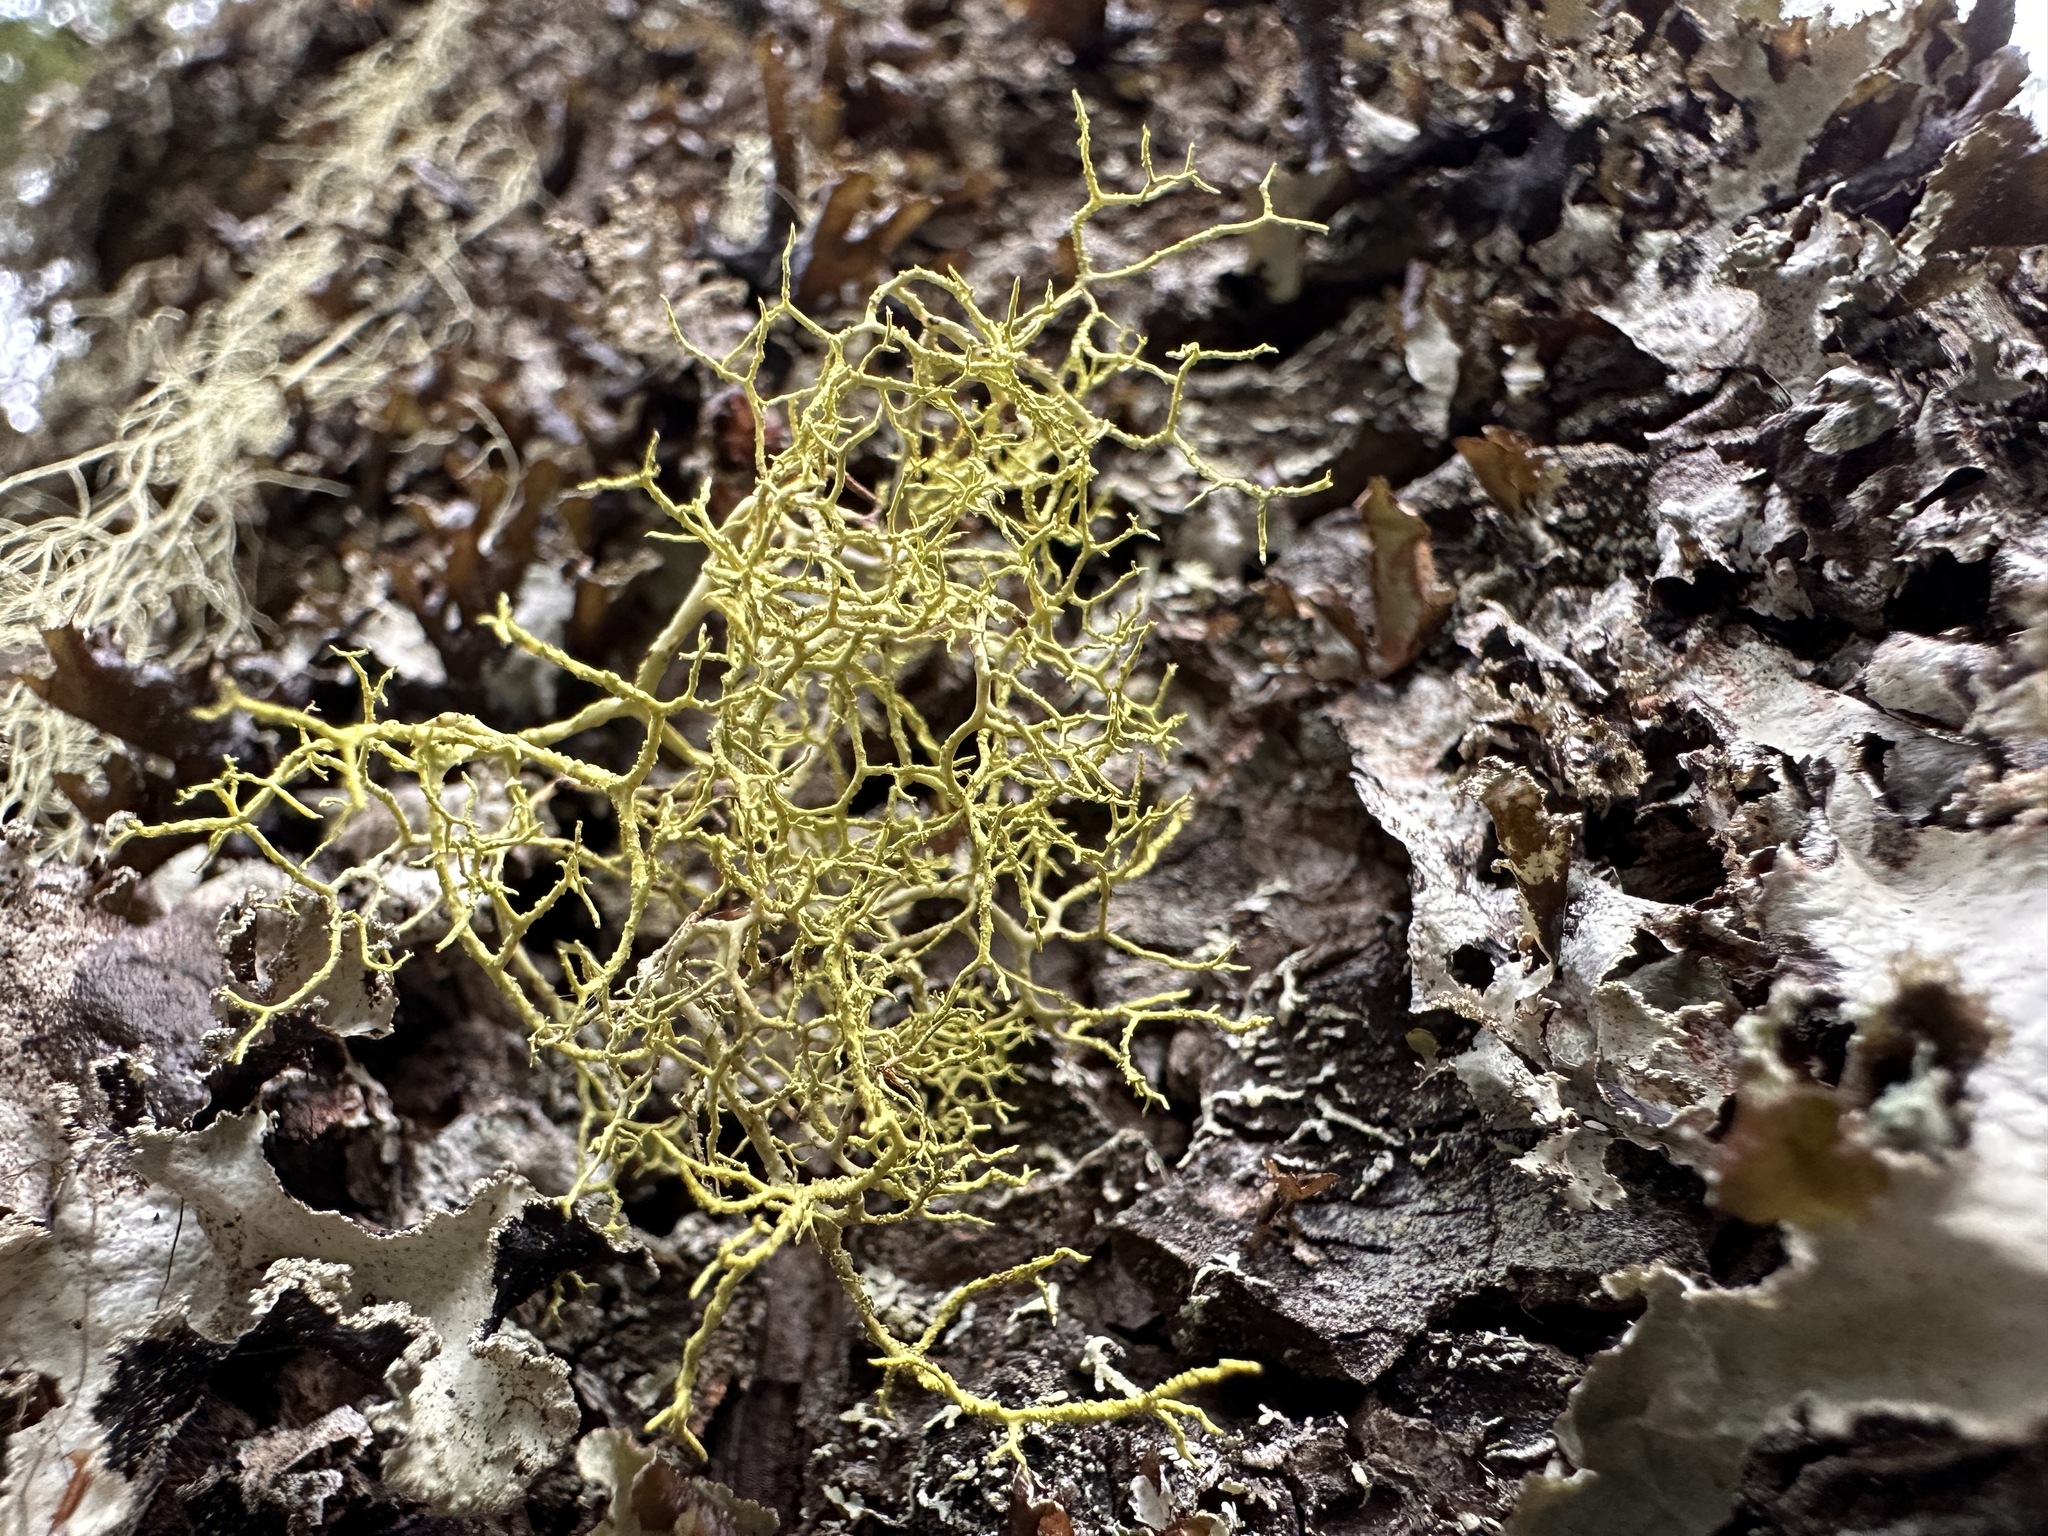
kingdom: Fungi
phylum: Ascomycota
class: Lecanoromycetes
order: Lecanorales
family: Parmeliaceae
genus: Letharia
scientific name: Letharia vulpina
